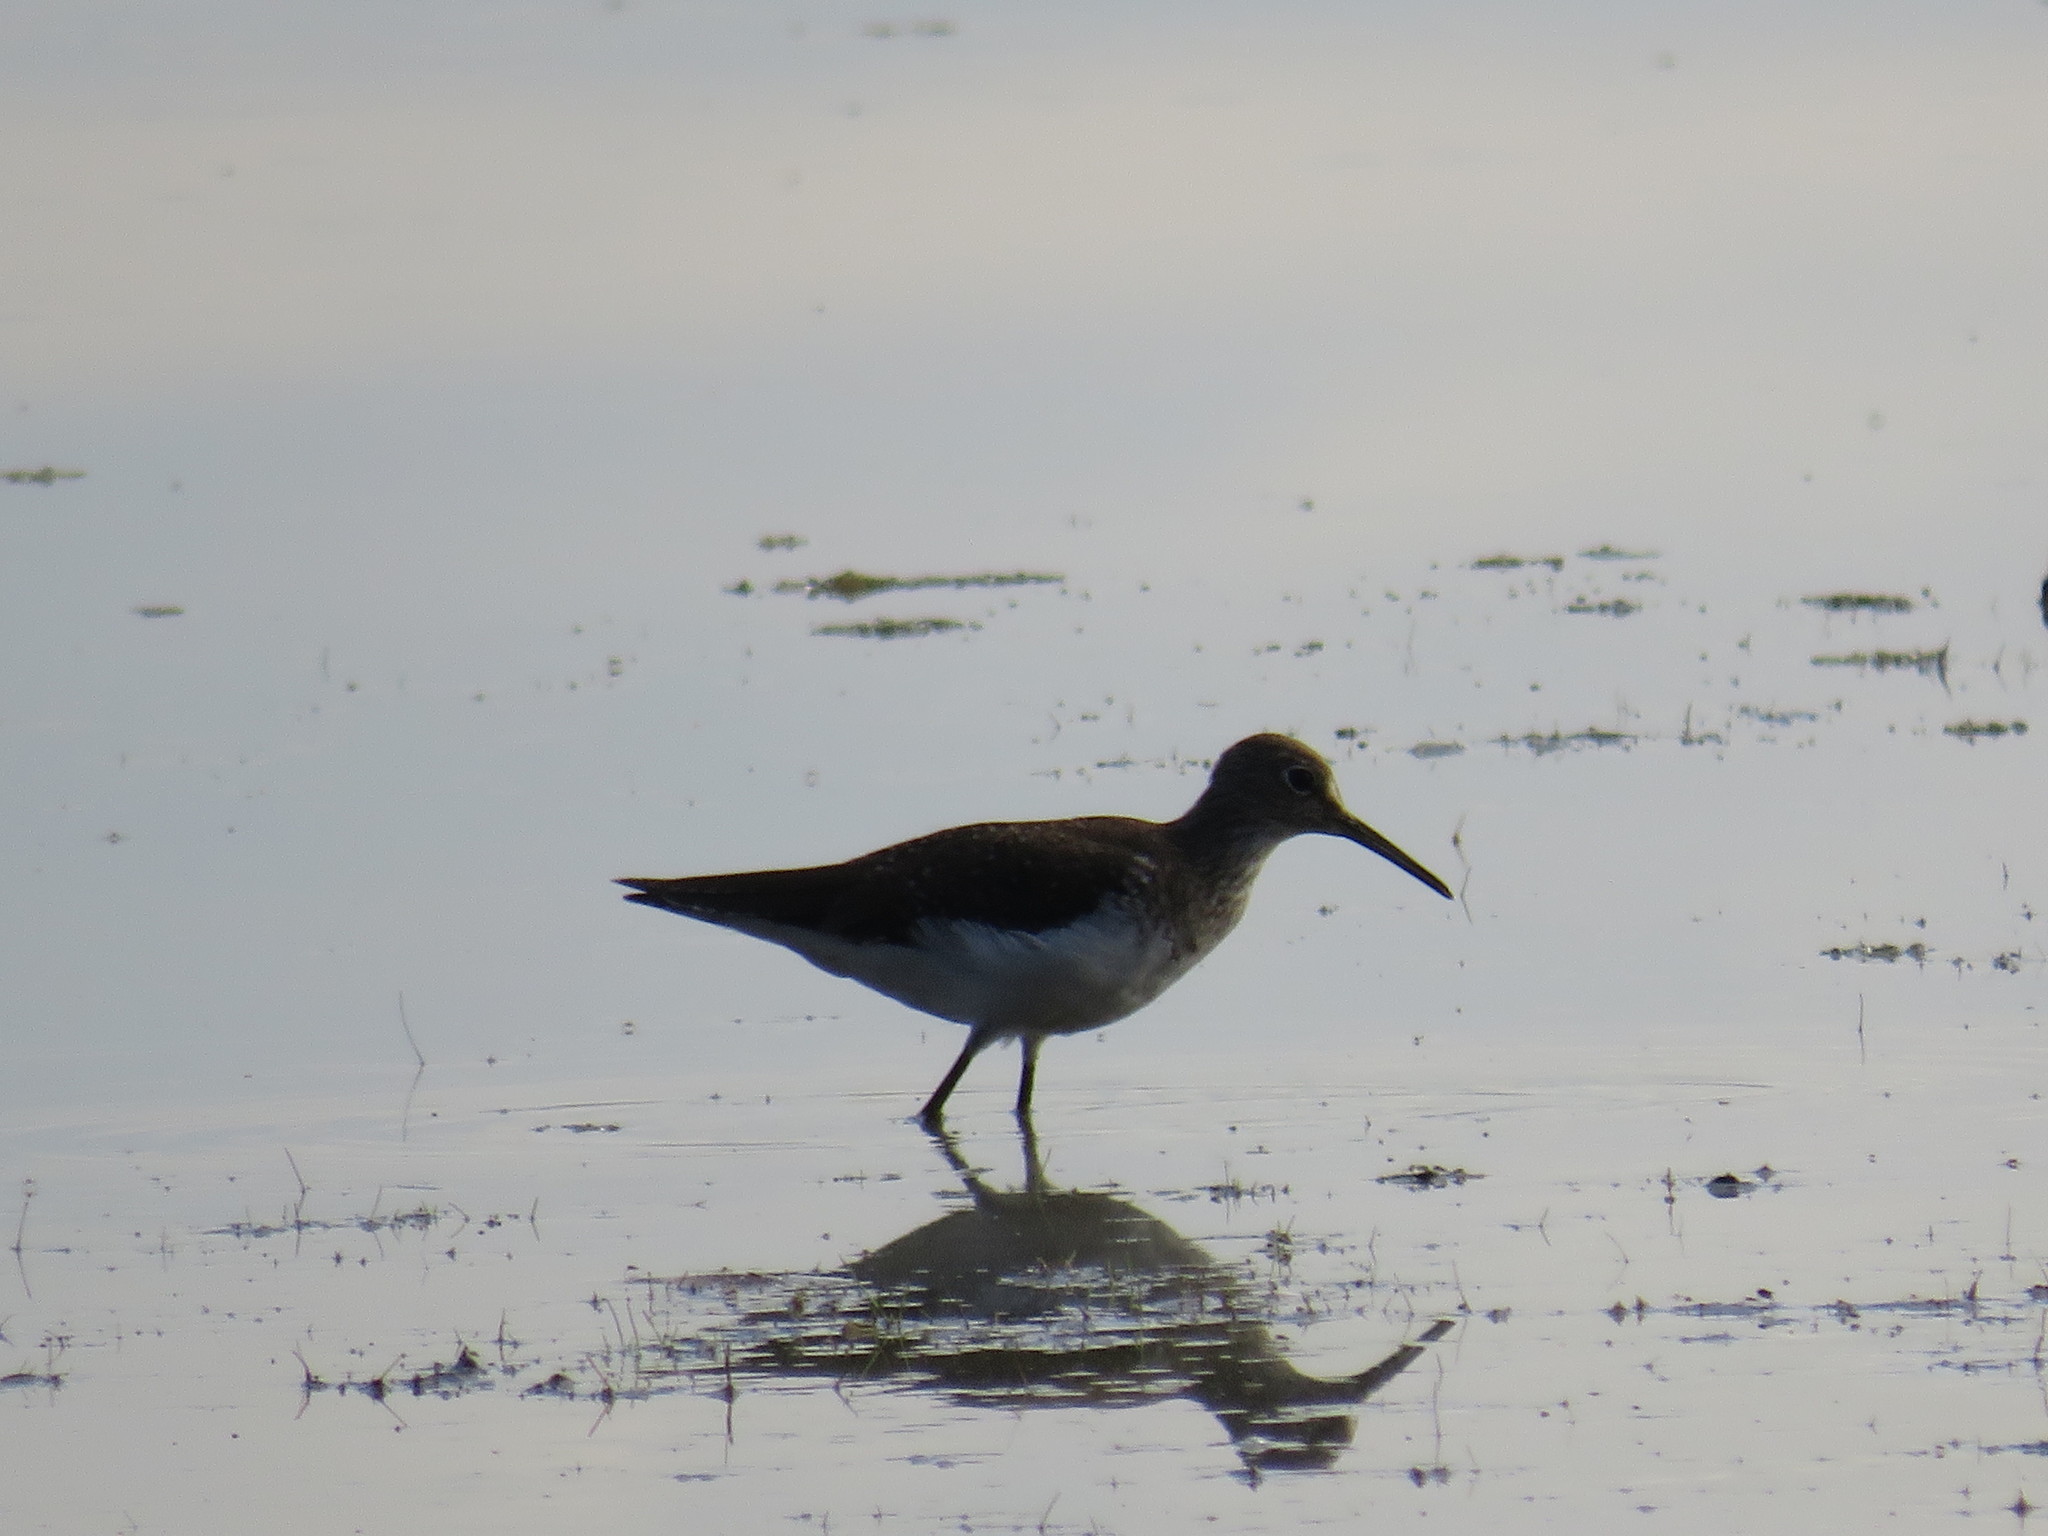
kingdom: Animalia
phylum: Chordata
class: Aves
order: Charadriiformes
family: Scolopacidae
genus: Tringa
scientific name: Tringa solitaria
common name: Solitary sandpiper
